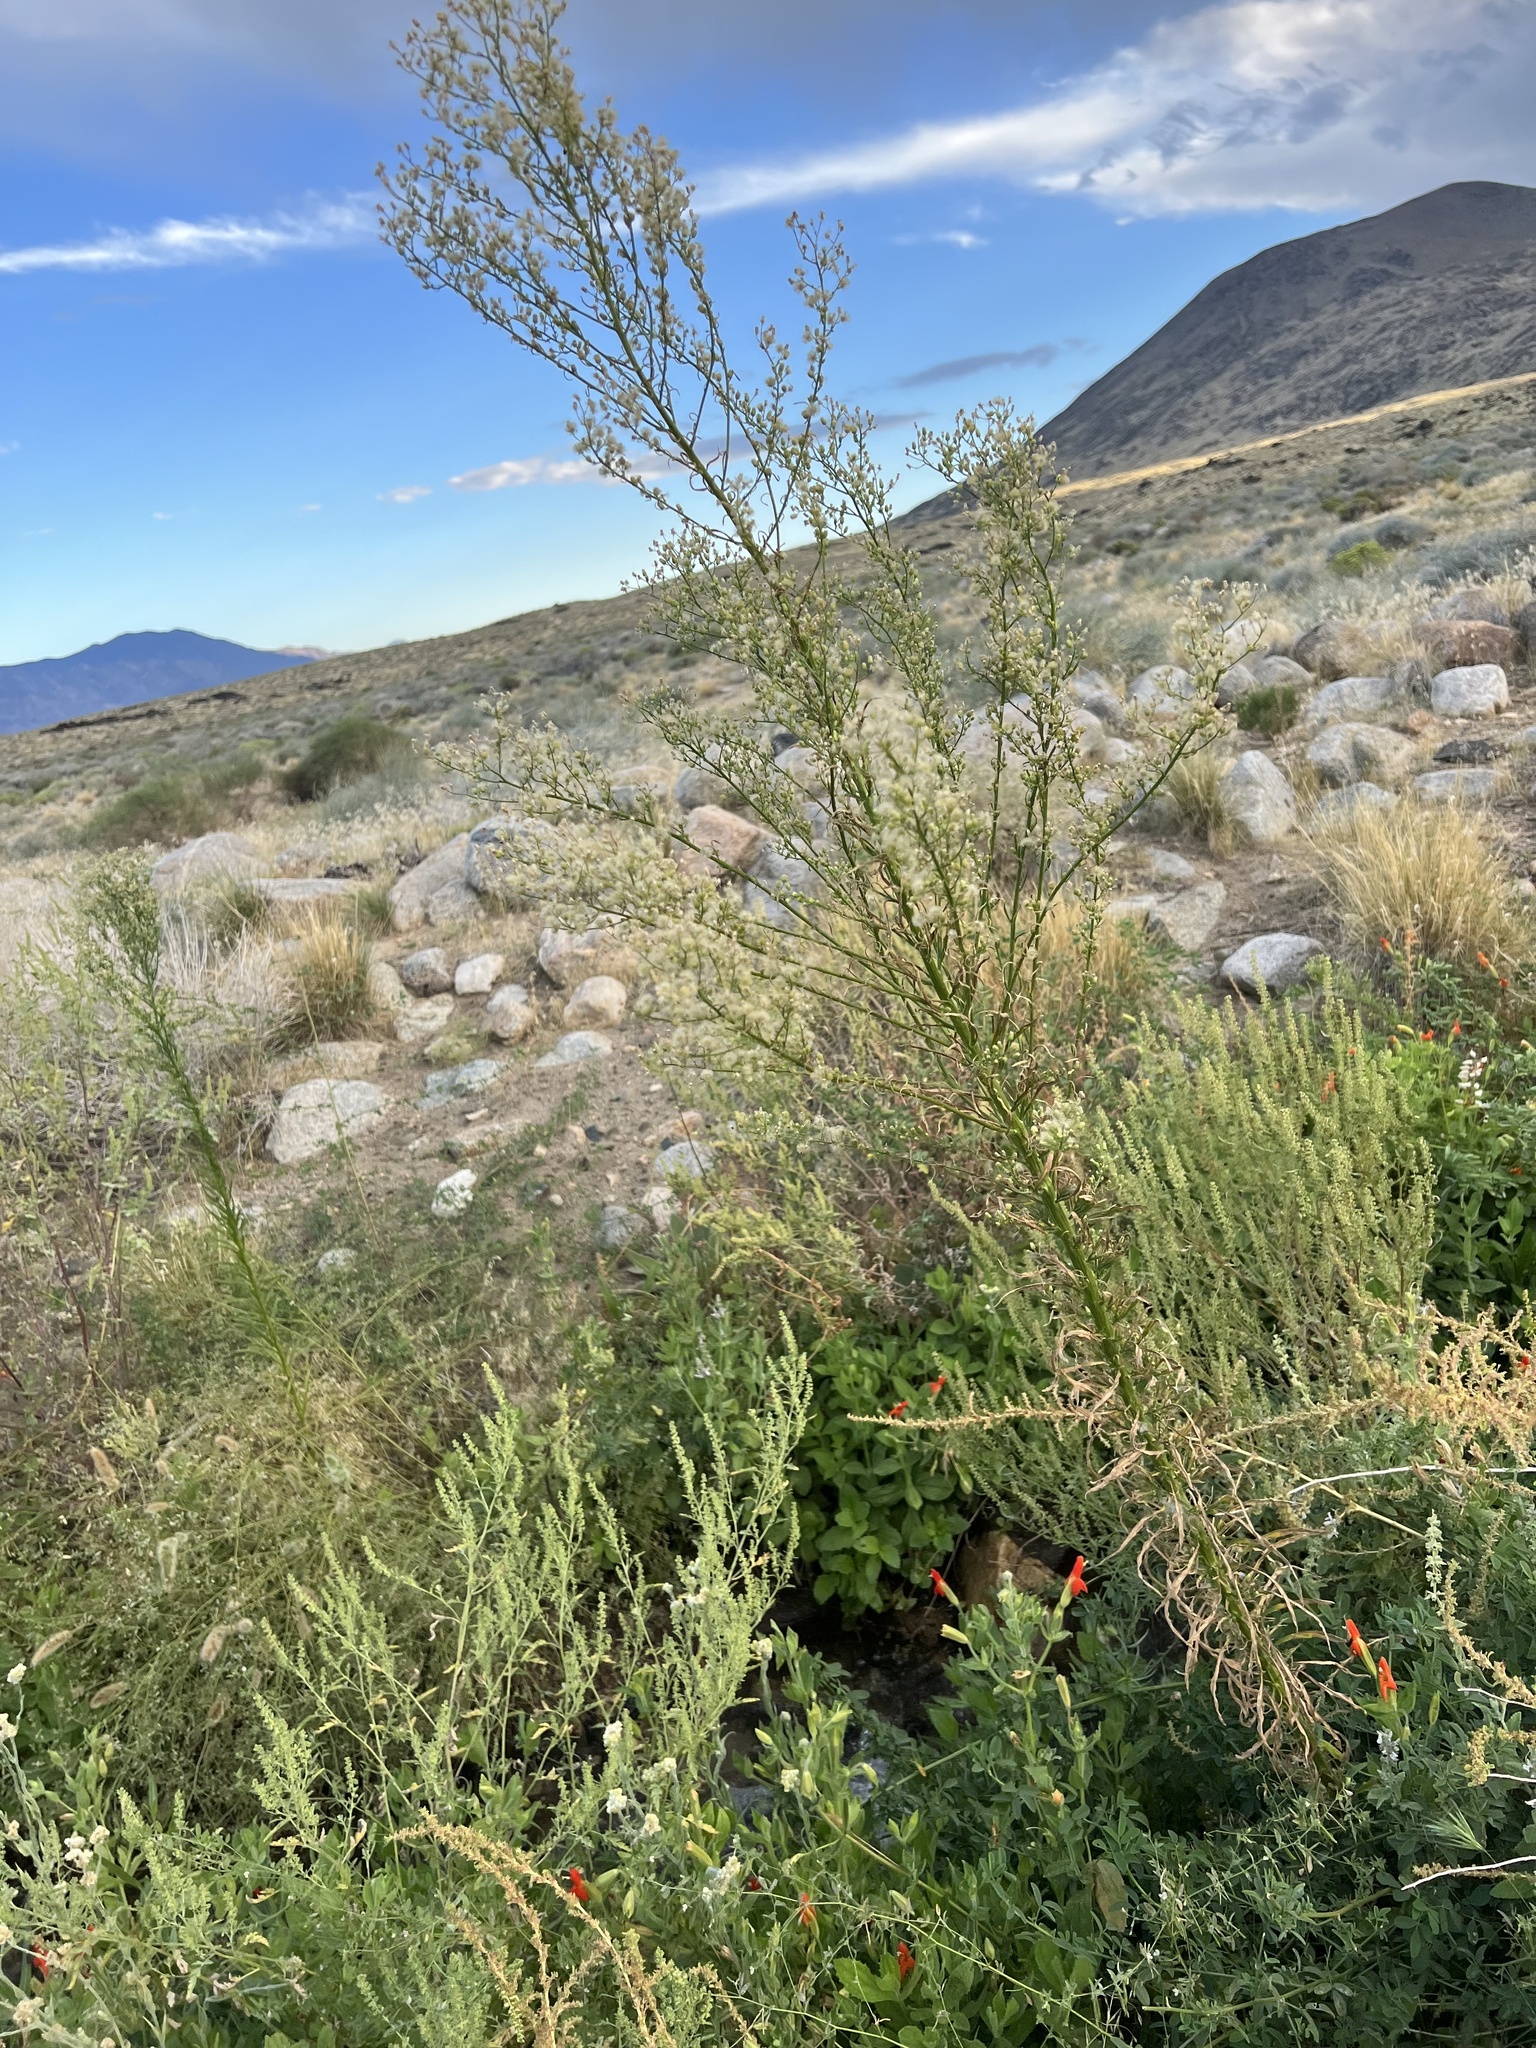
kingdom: Plantae
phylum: Tracheophyta
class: Magnoliopsida
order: Asterales
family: Asteraceae
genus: Erigeron
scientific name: Erigeron canadensis
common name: Canadian fleabane
